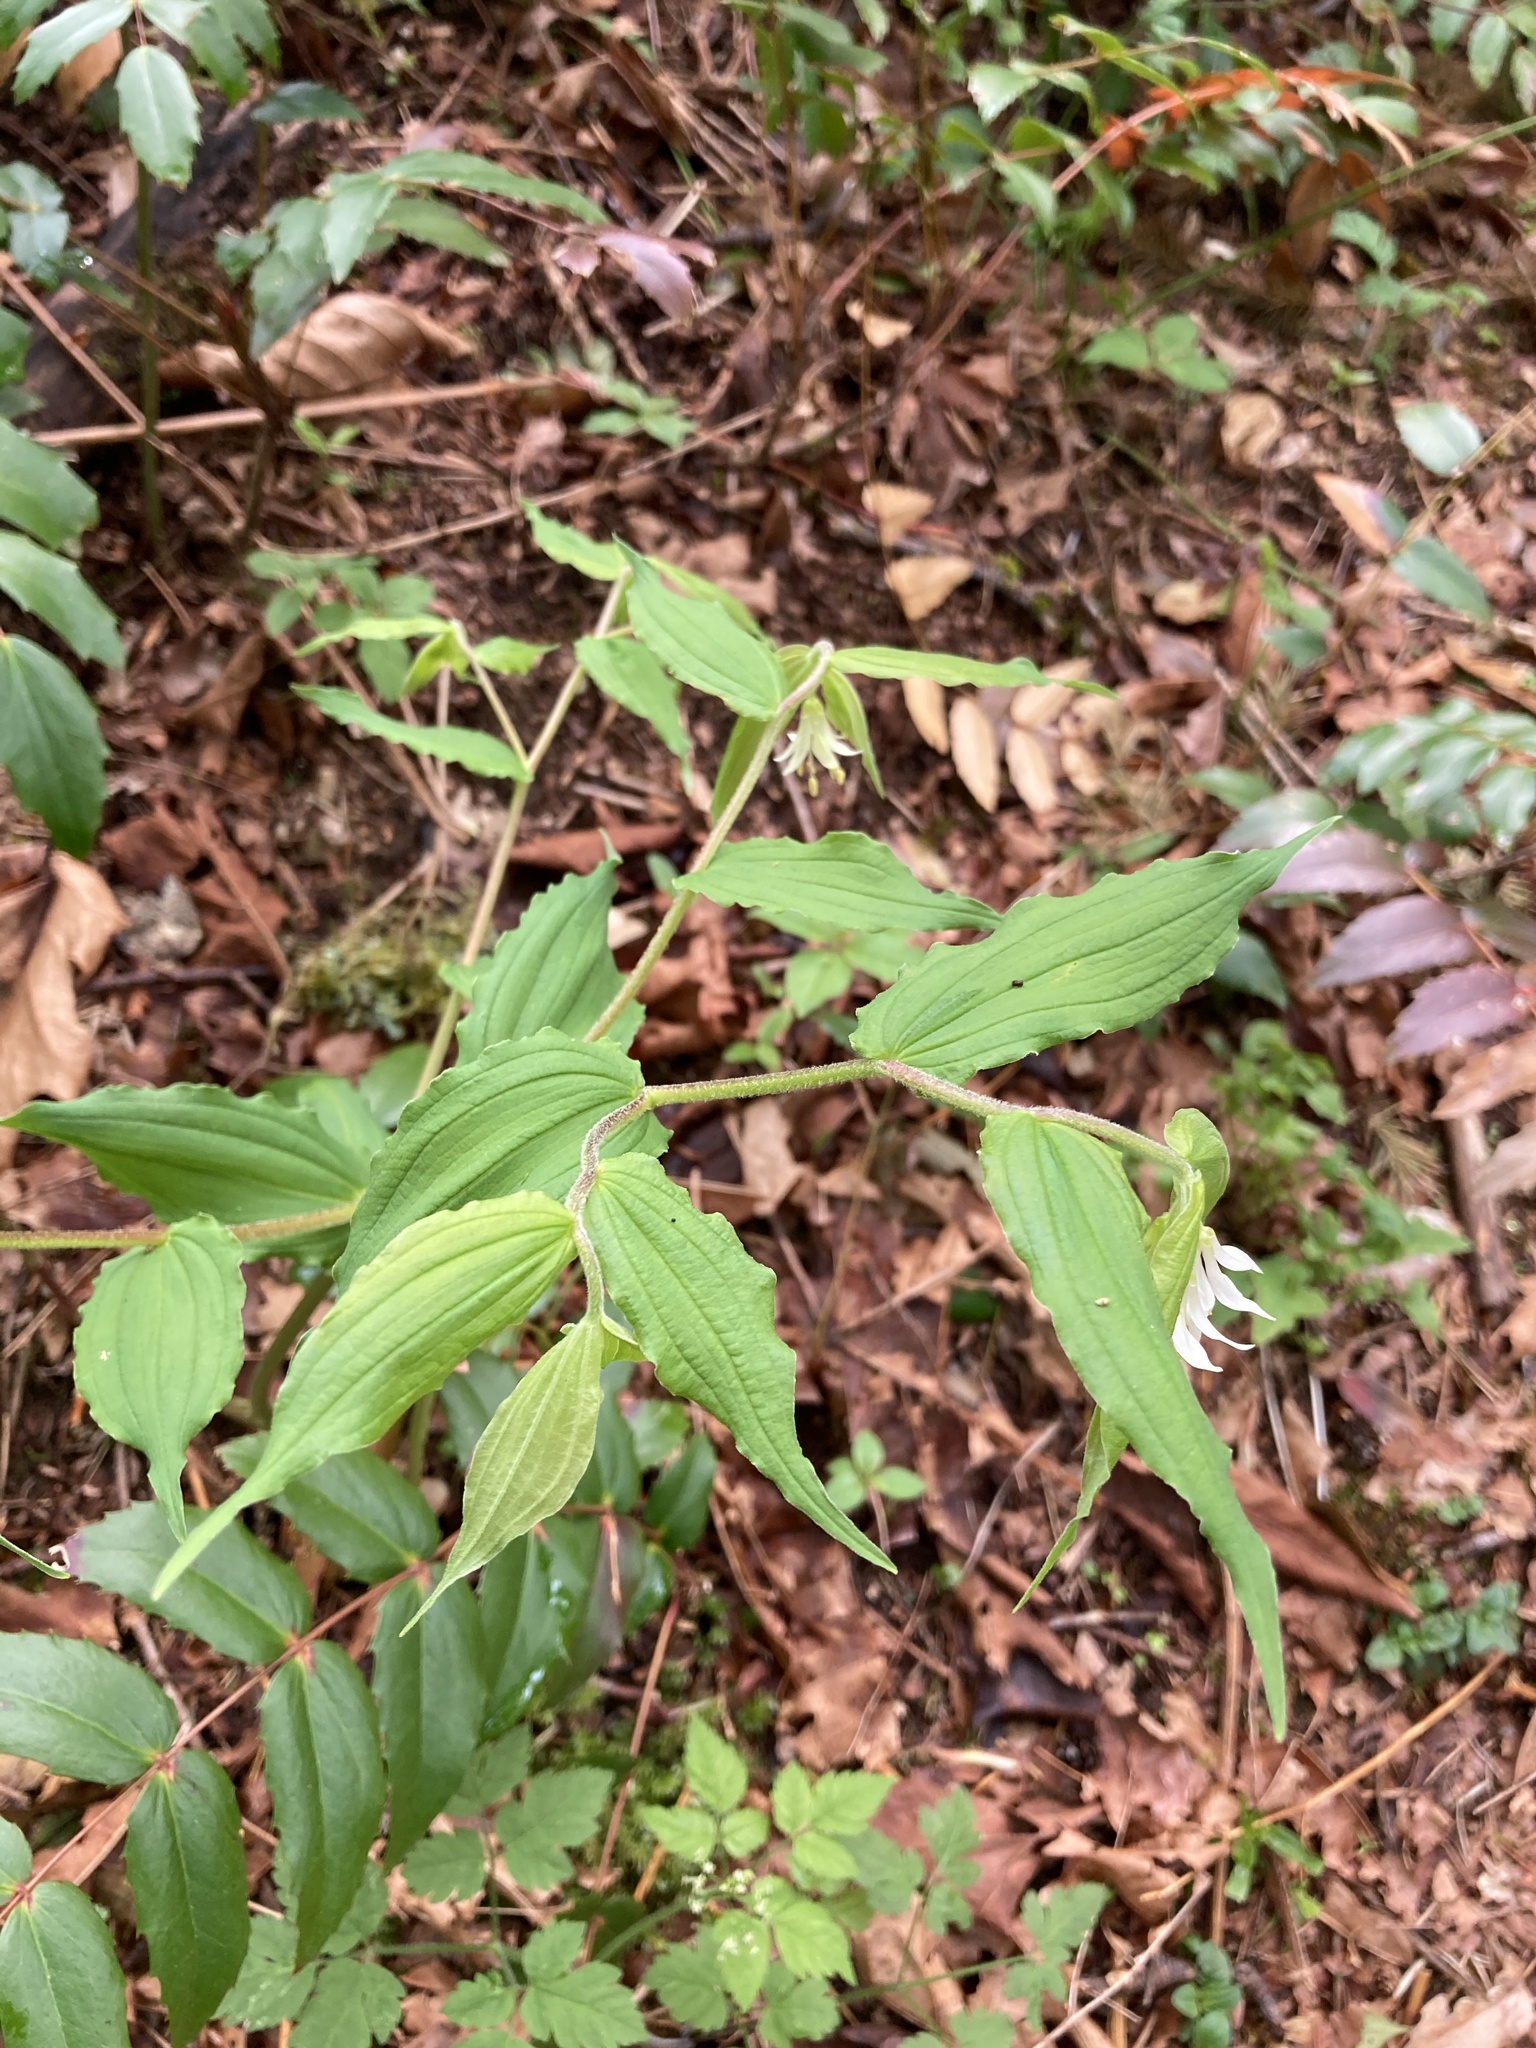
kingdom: Plantae
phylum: Tracheophyta
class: Liliopsida
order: Liliales
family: Liliaceae
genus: Prosartes
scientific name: Prosartes hookeri
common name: Fairy-bells
